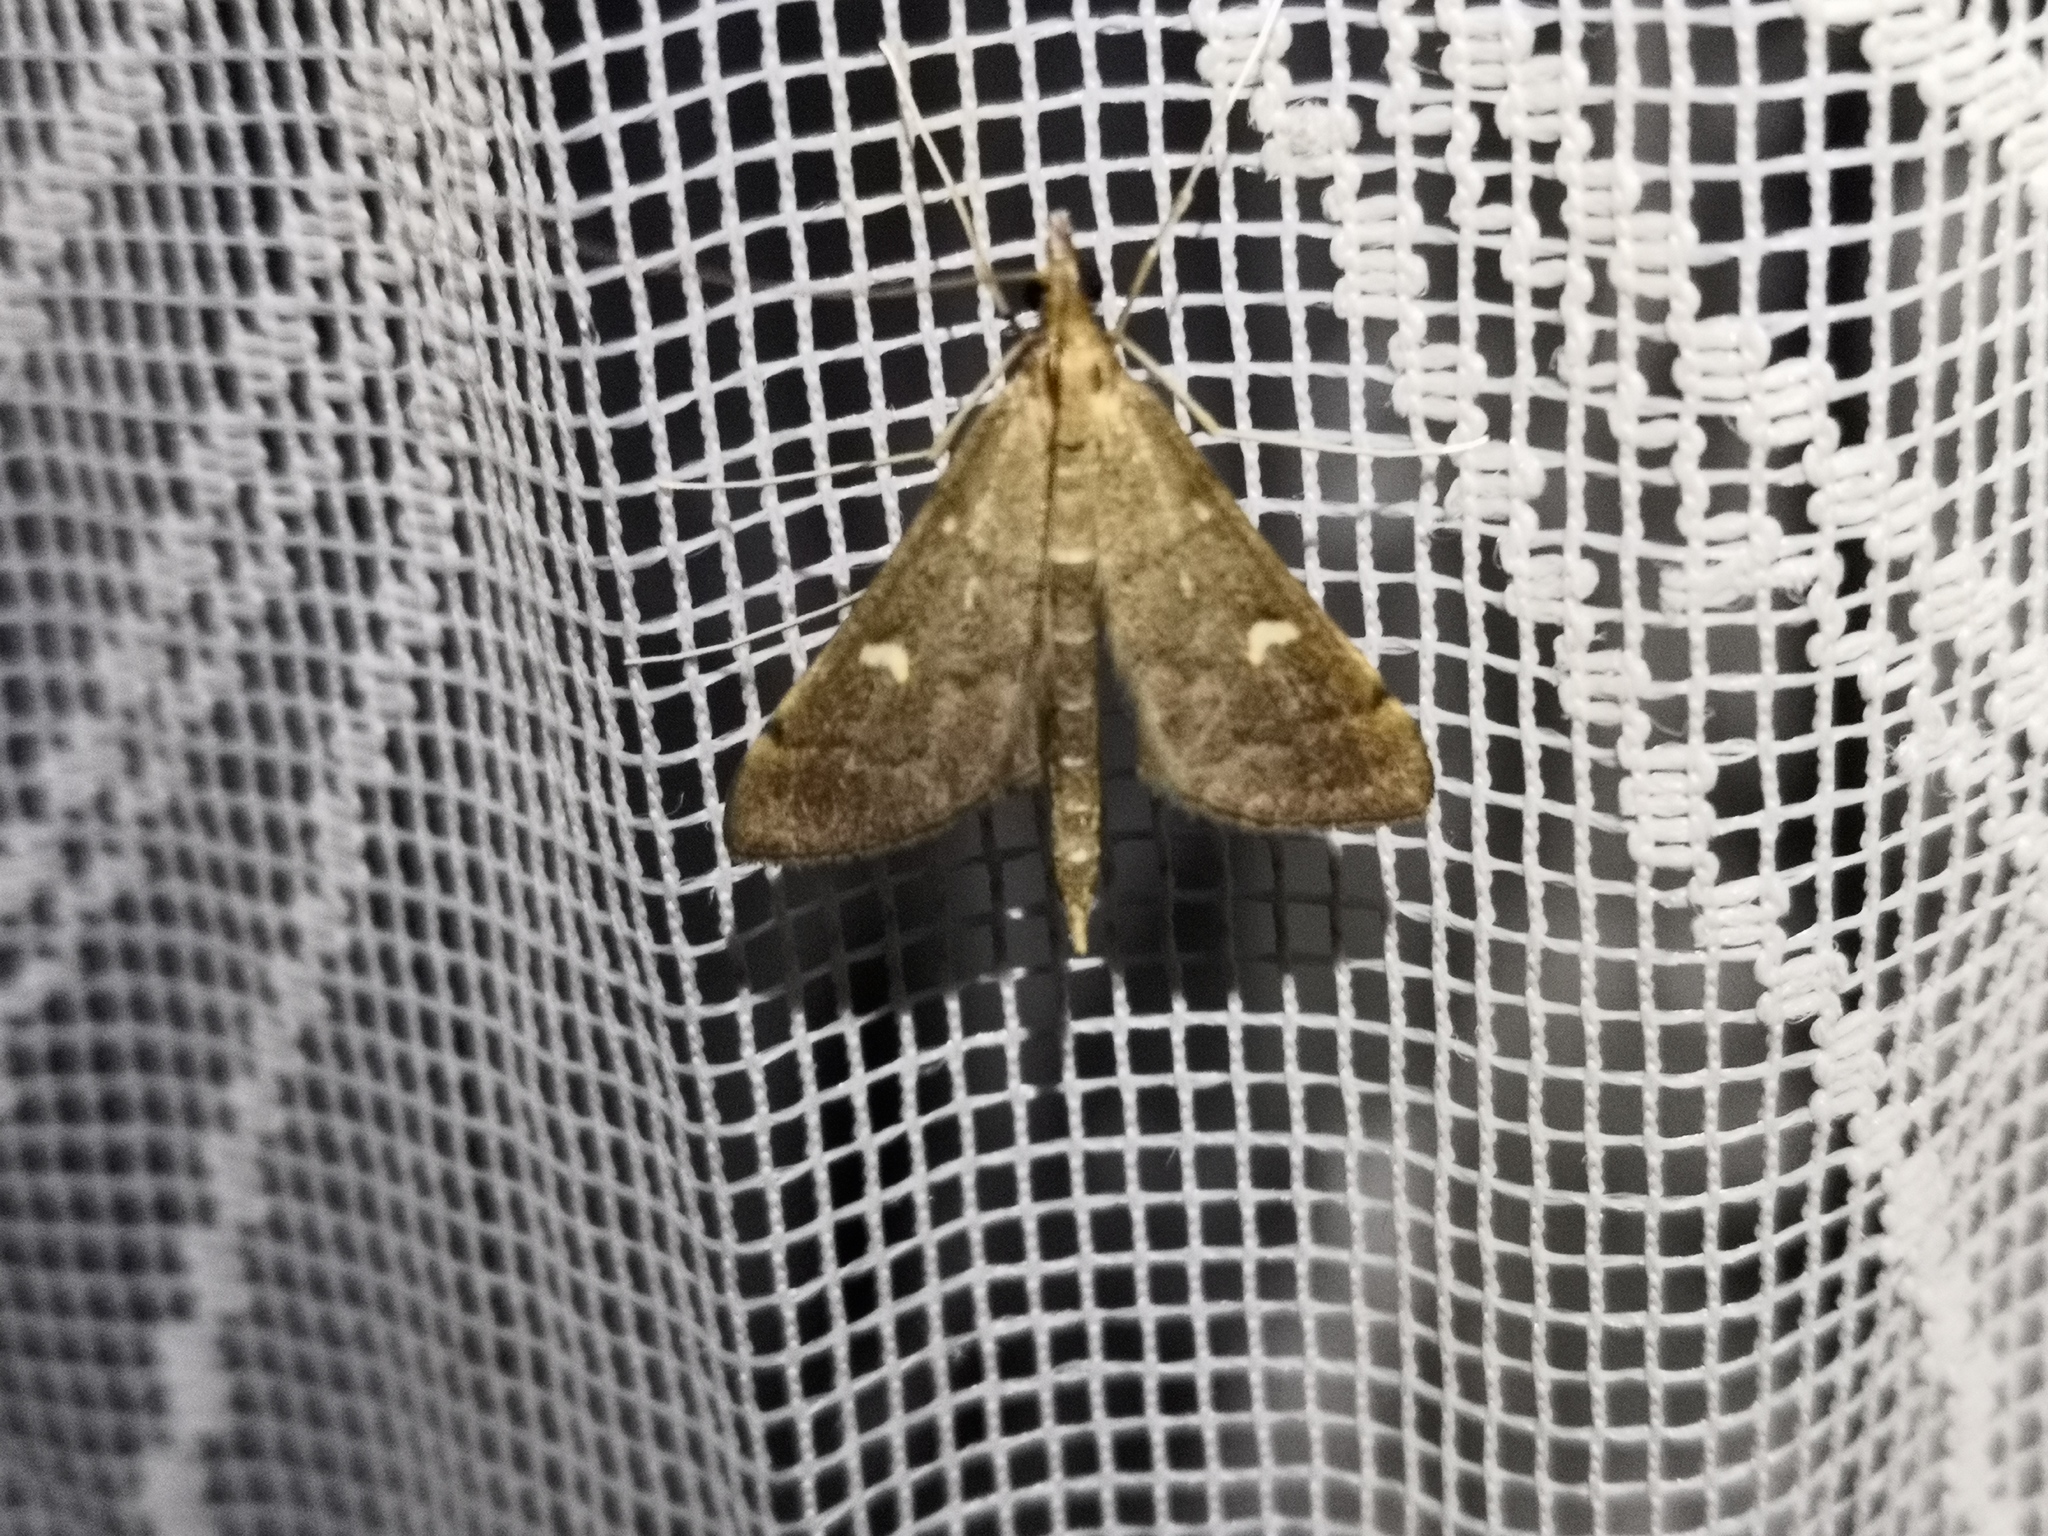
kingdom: Animalia
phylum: Arthropoda
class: Insecta
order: Lepidoptera
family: Crambidae
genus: Stenia
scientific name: Stenia Dolicharthria punctalis
